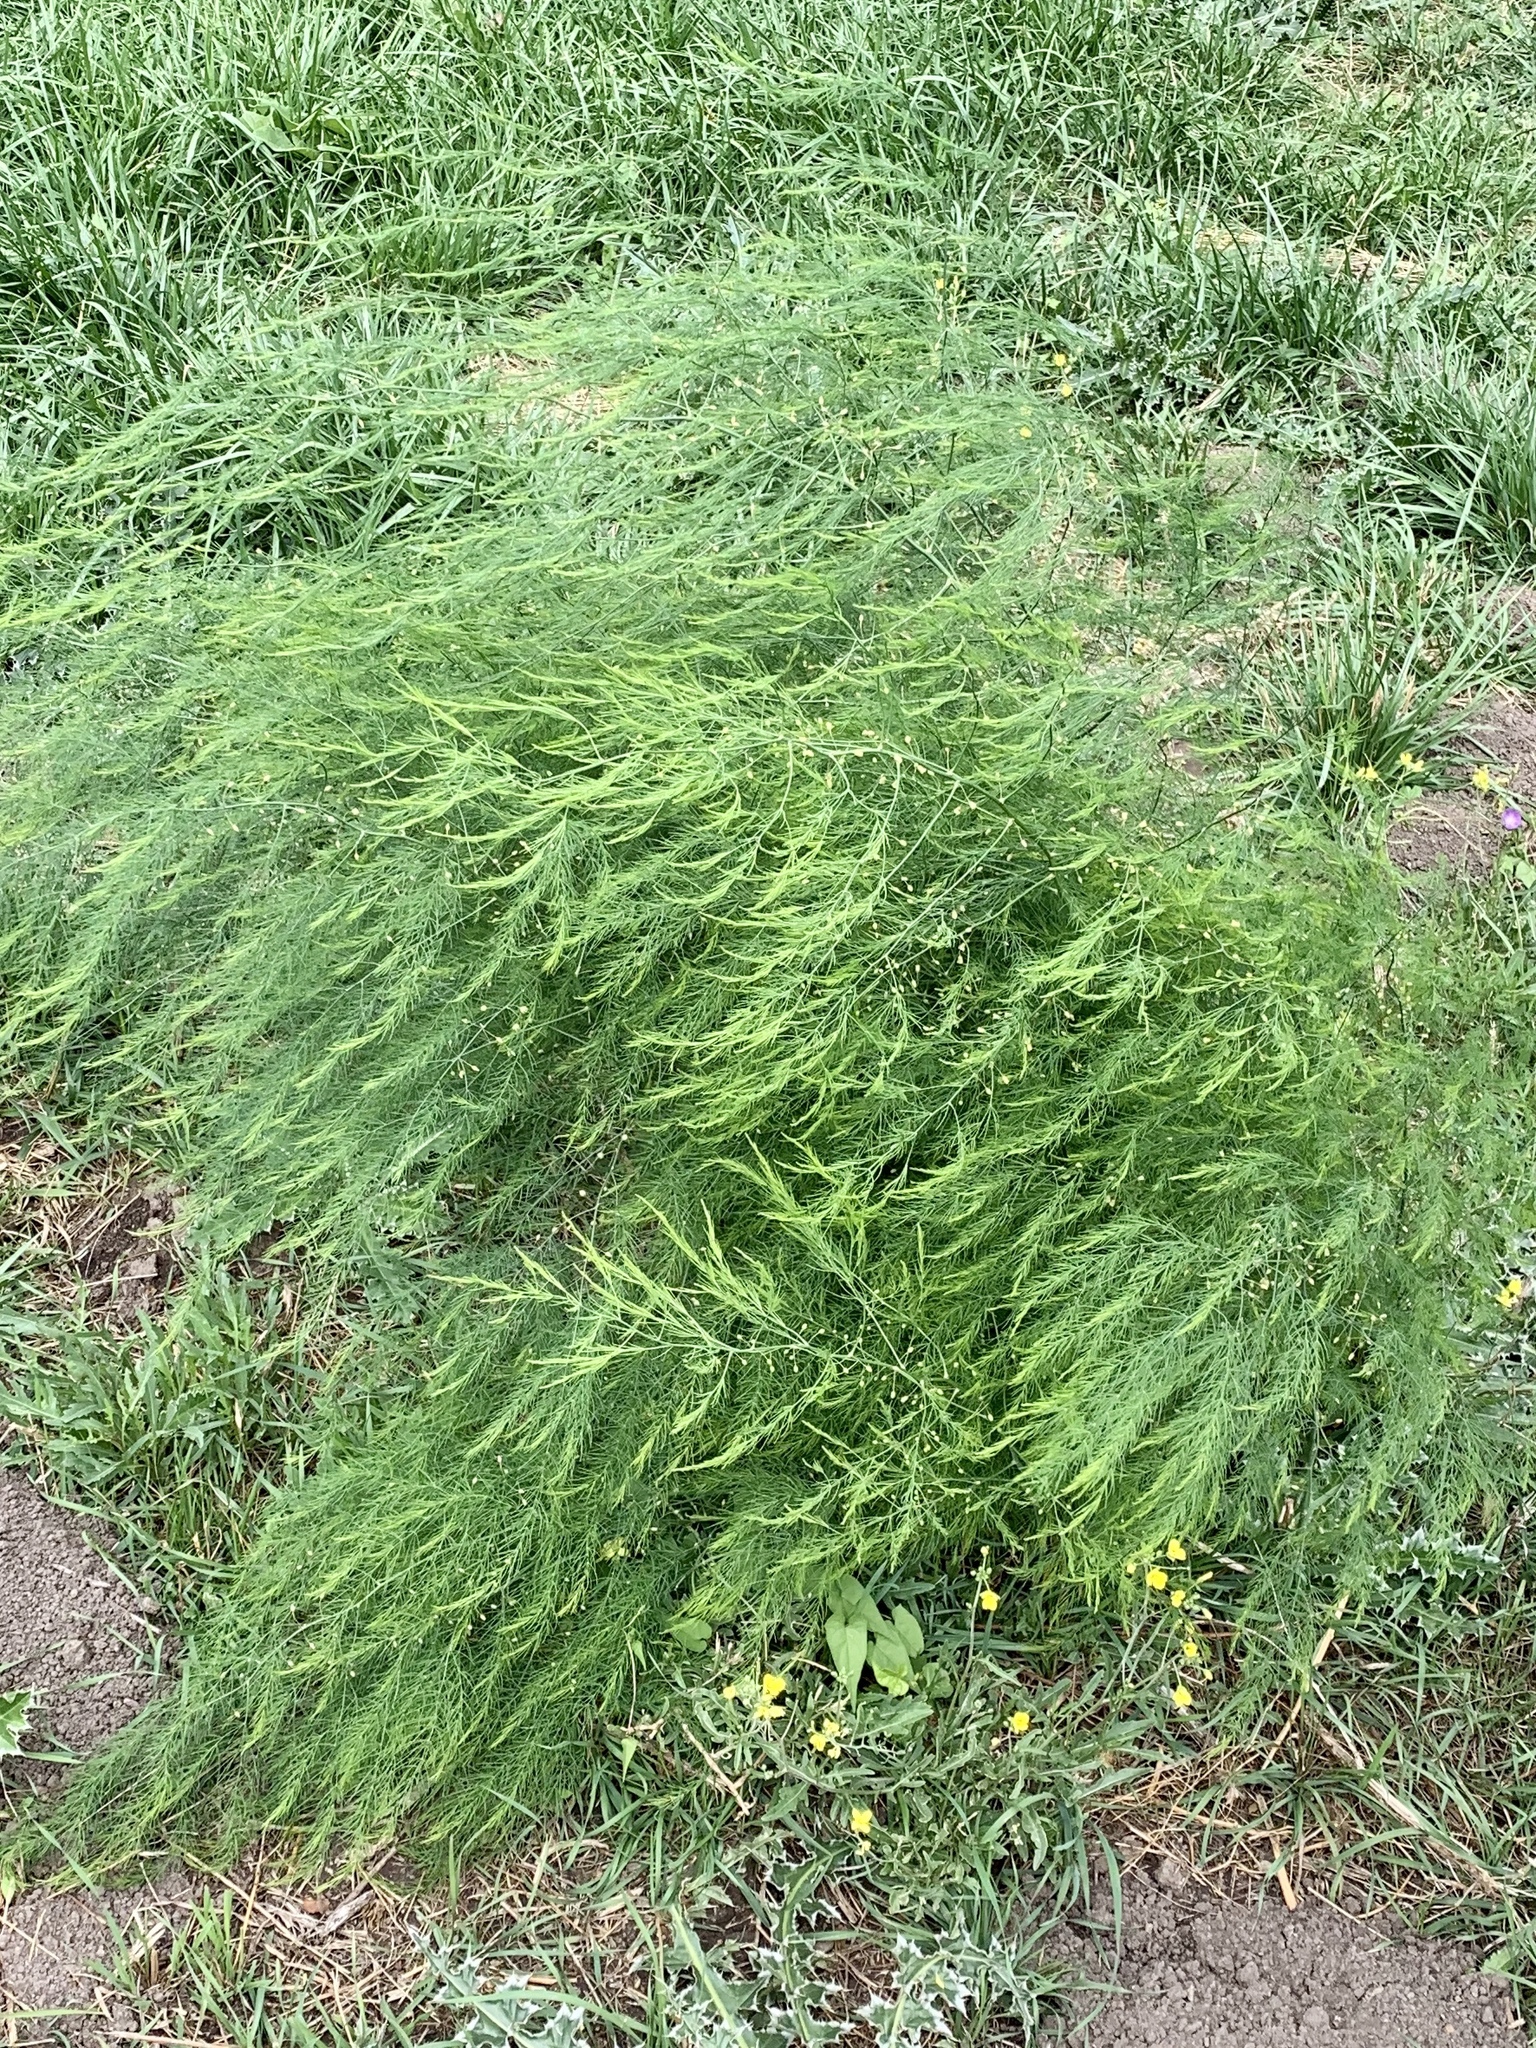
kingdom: Plantae
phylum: Tracheophyta
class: Liliopsida
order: Asparagales
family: Asparagaceae
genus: Asparagus
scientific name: Asparagus officinalis
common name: Garden asparagus
